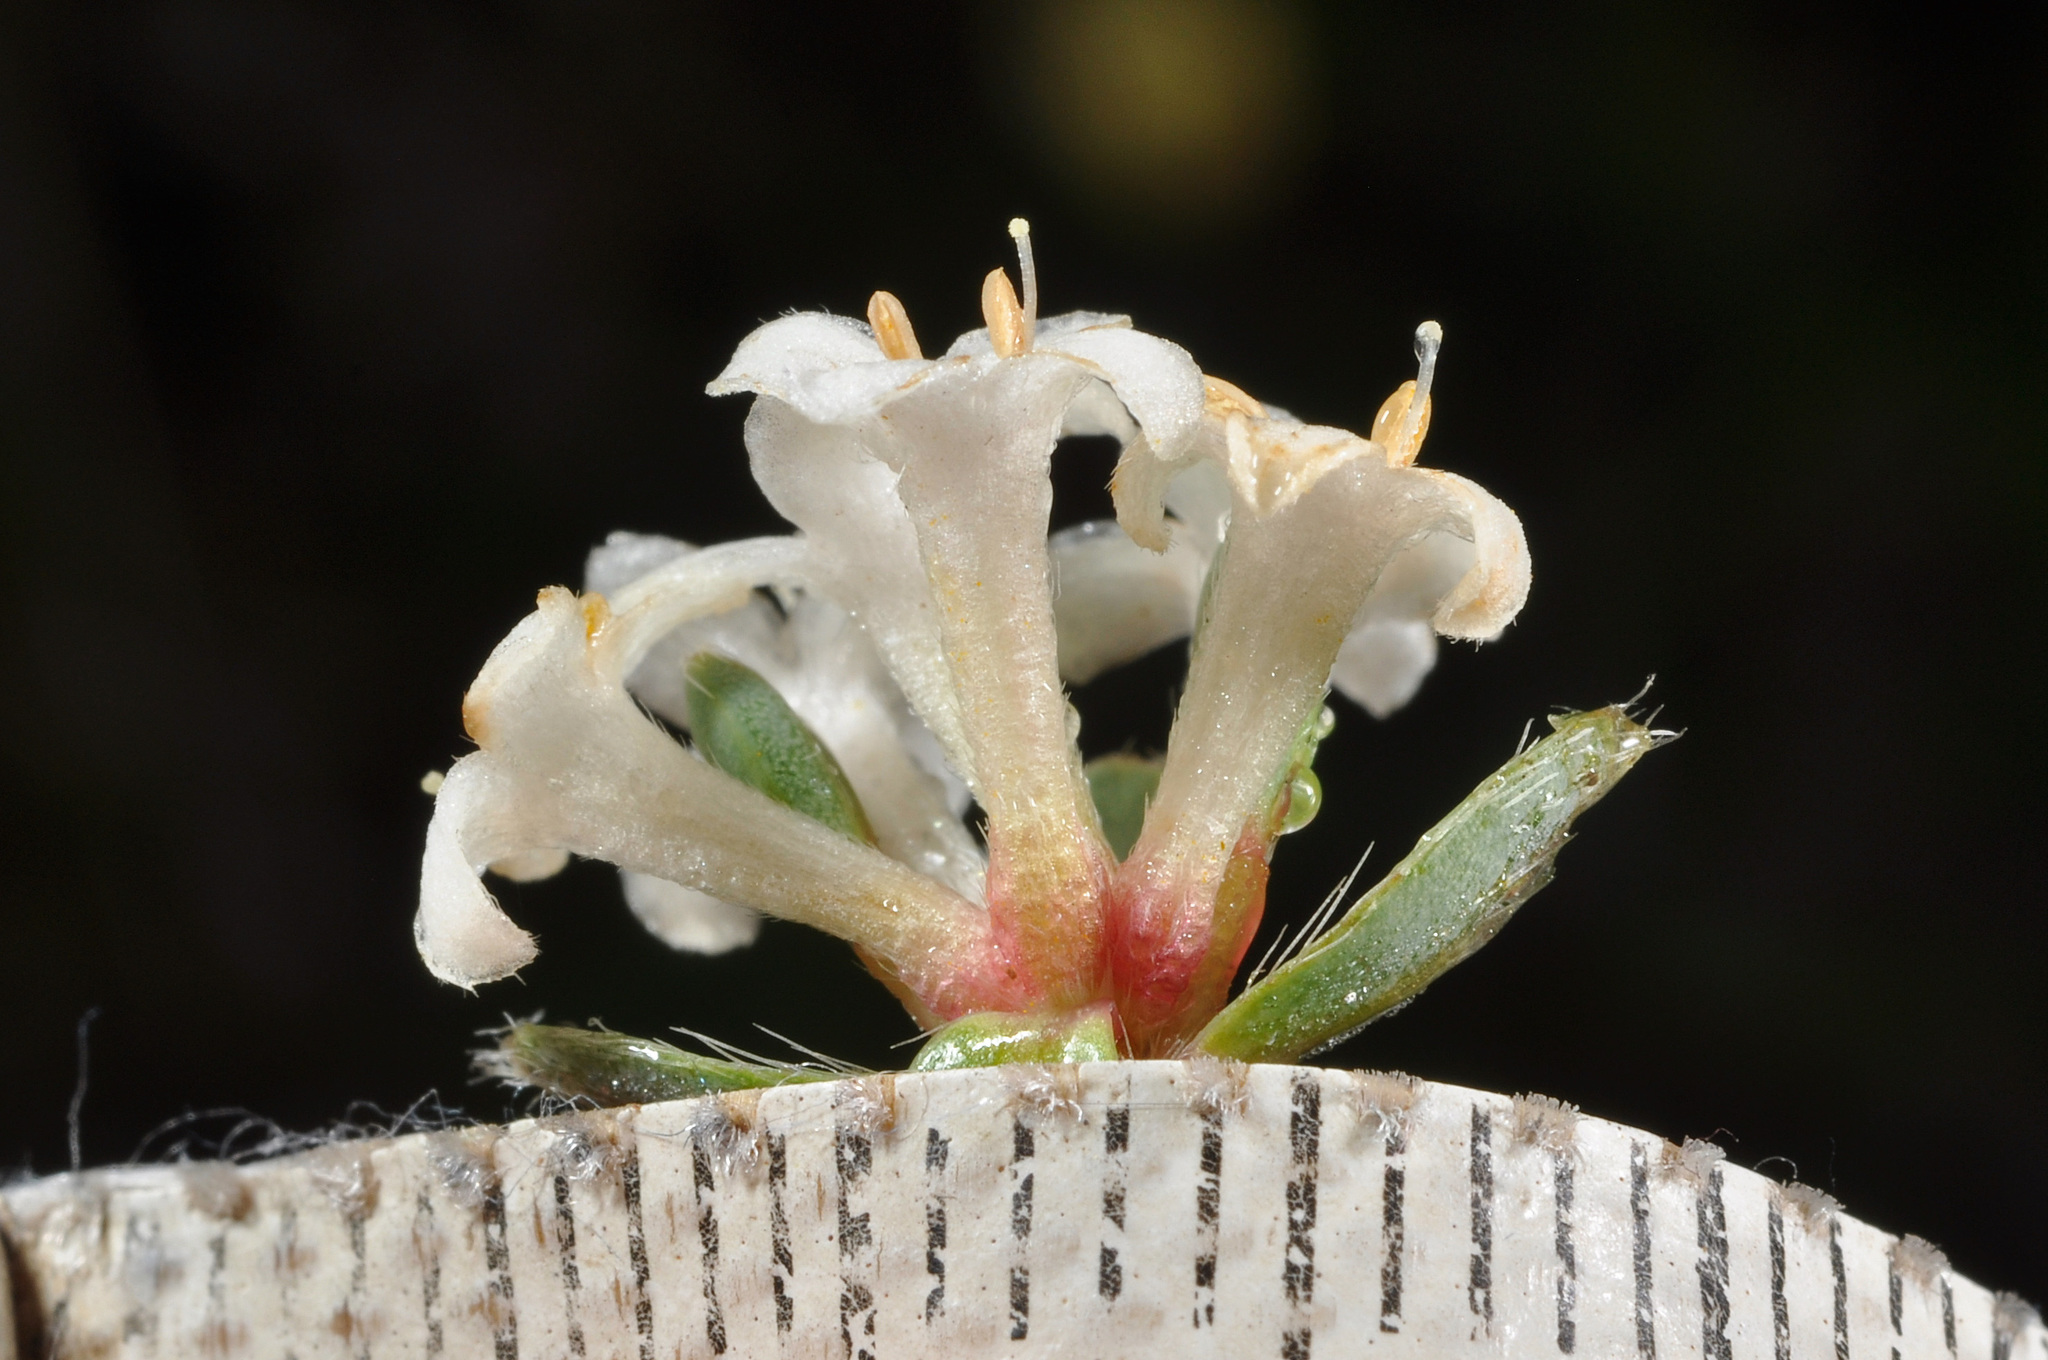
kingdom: Plantae
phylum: Tracheophyta
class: Magnoliopsida
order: Malvales
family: Thymelaeaceae
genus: Pimelea
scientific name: Pimelea oreophila
